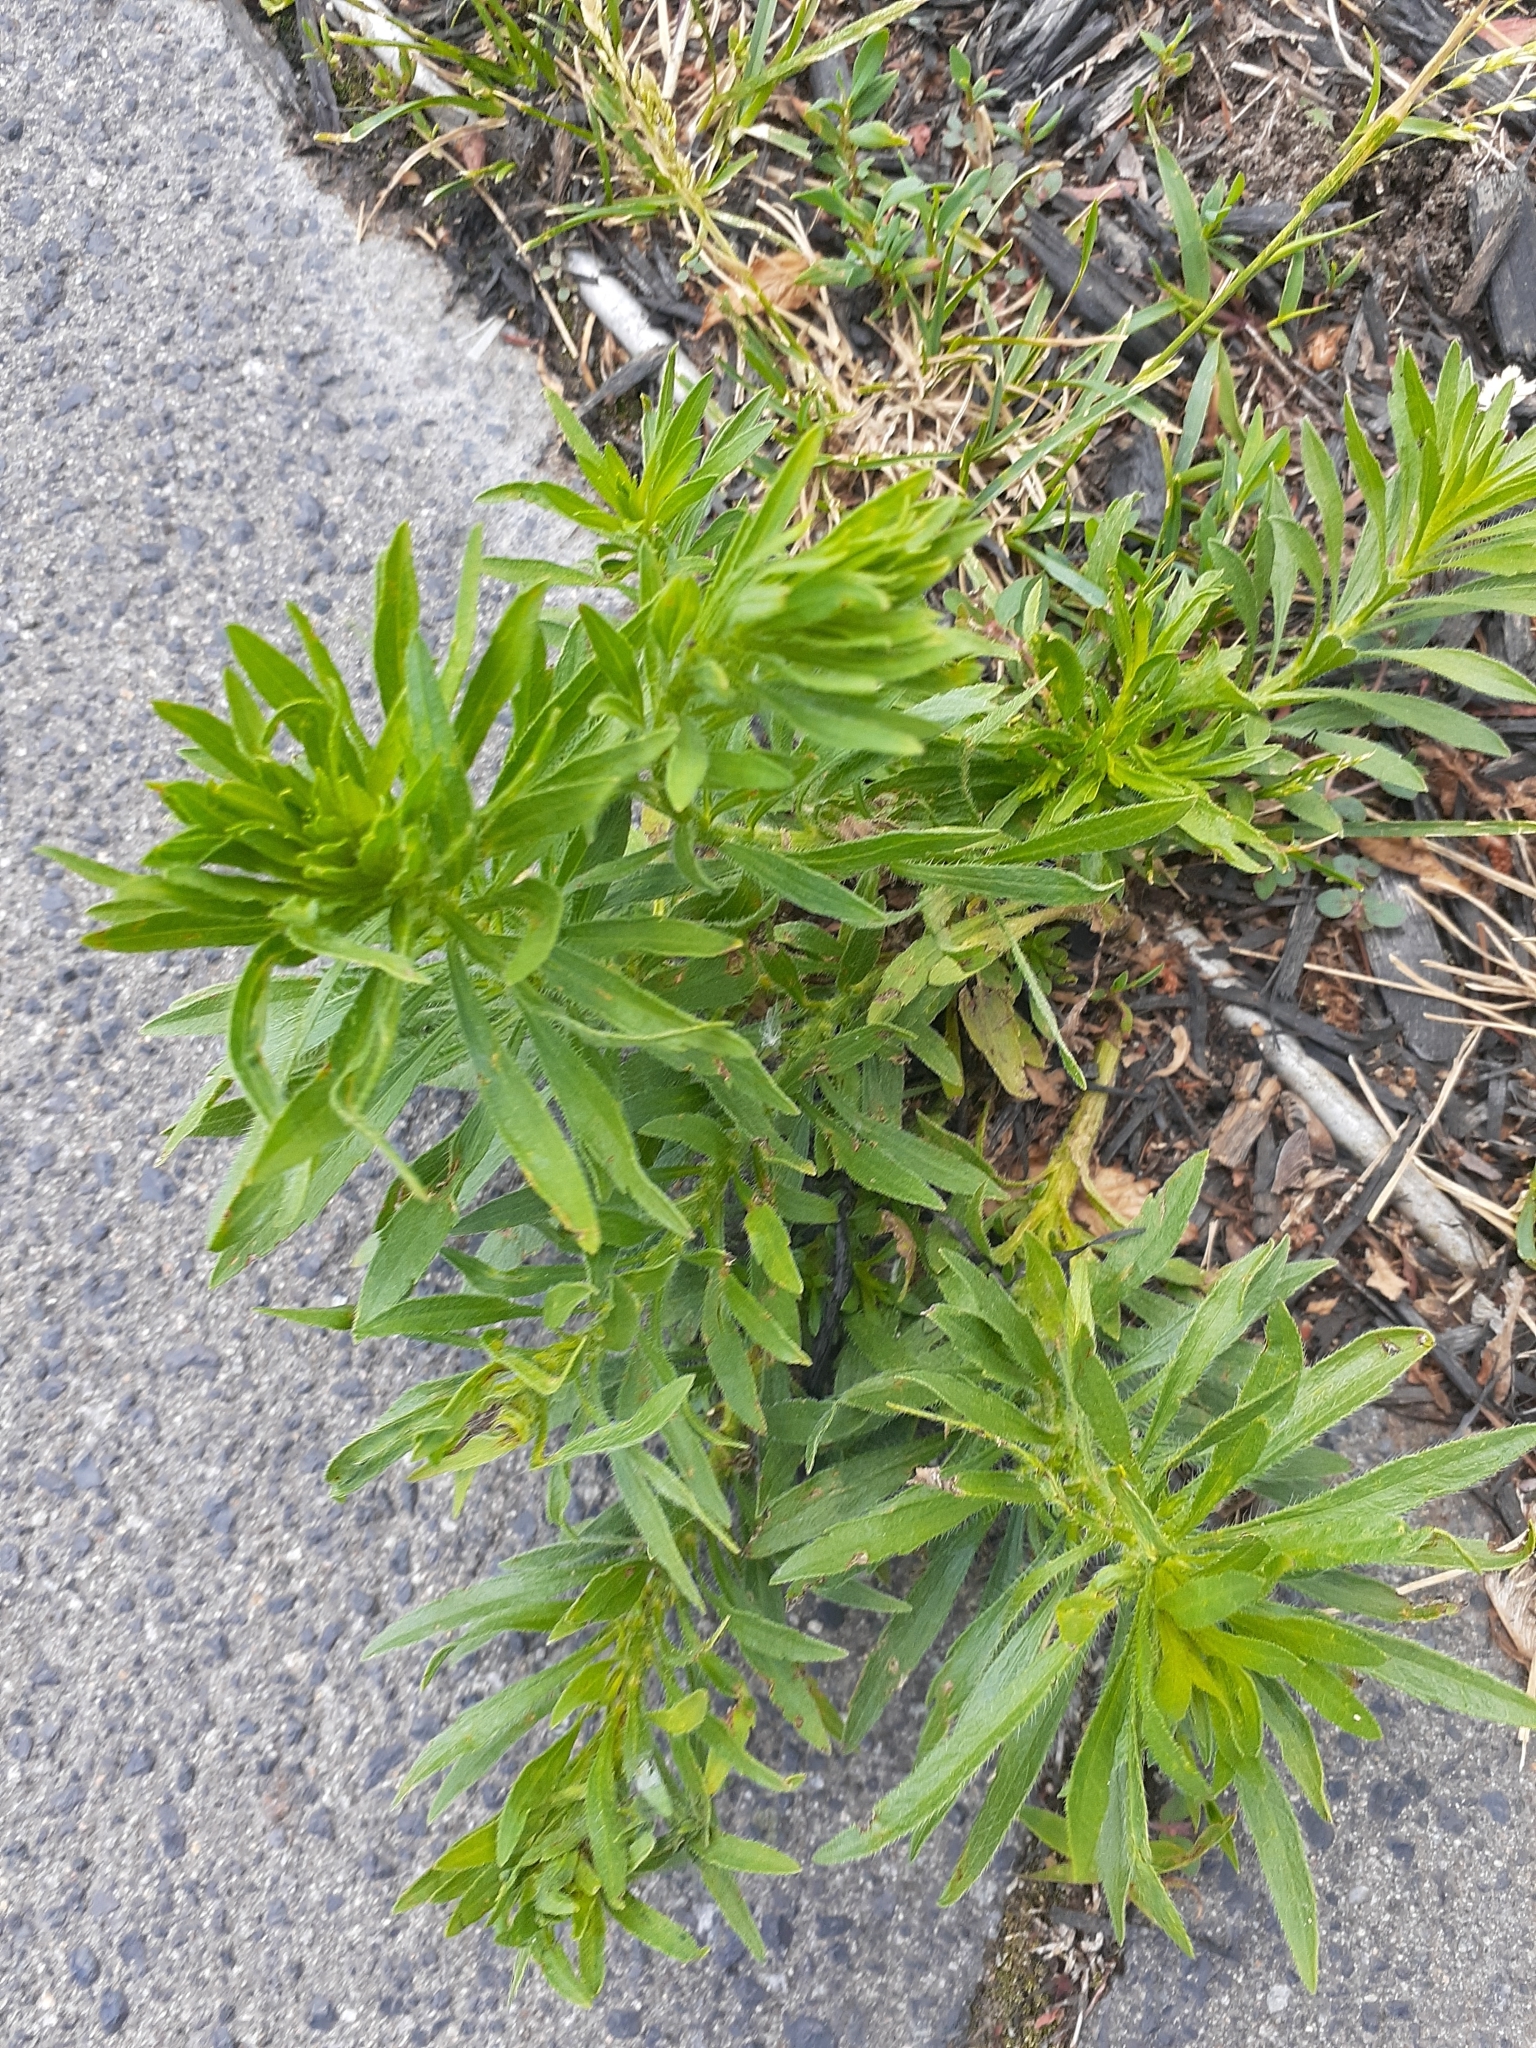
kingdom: Plantae
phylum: Tracheophyta
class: Magnoliopsida
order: Asterales
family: Asteraceae
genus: Erigeron
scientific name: Erigeron canadensis
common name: Canadian fleabane
